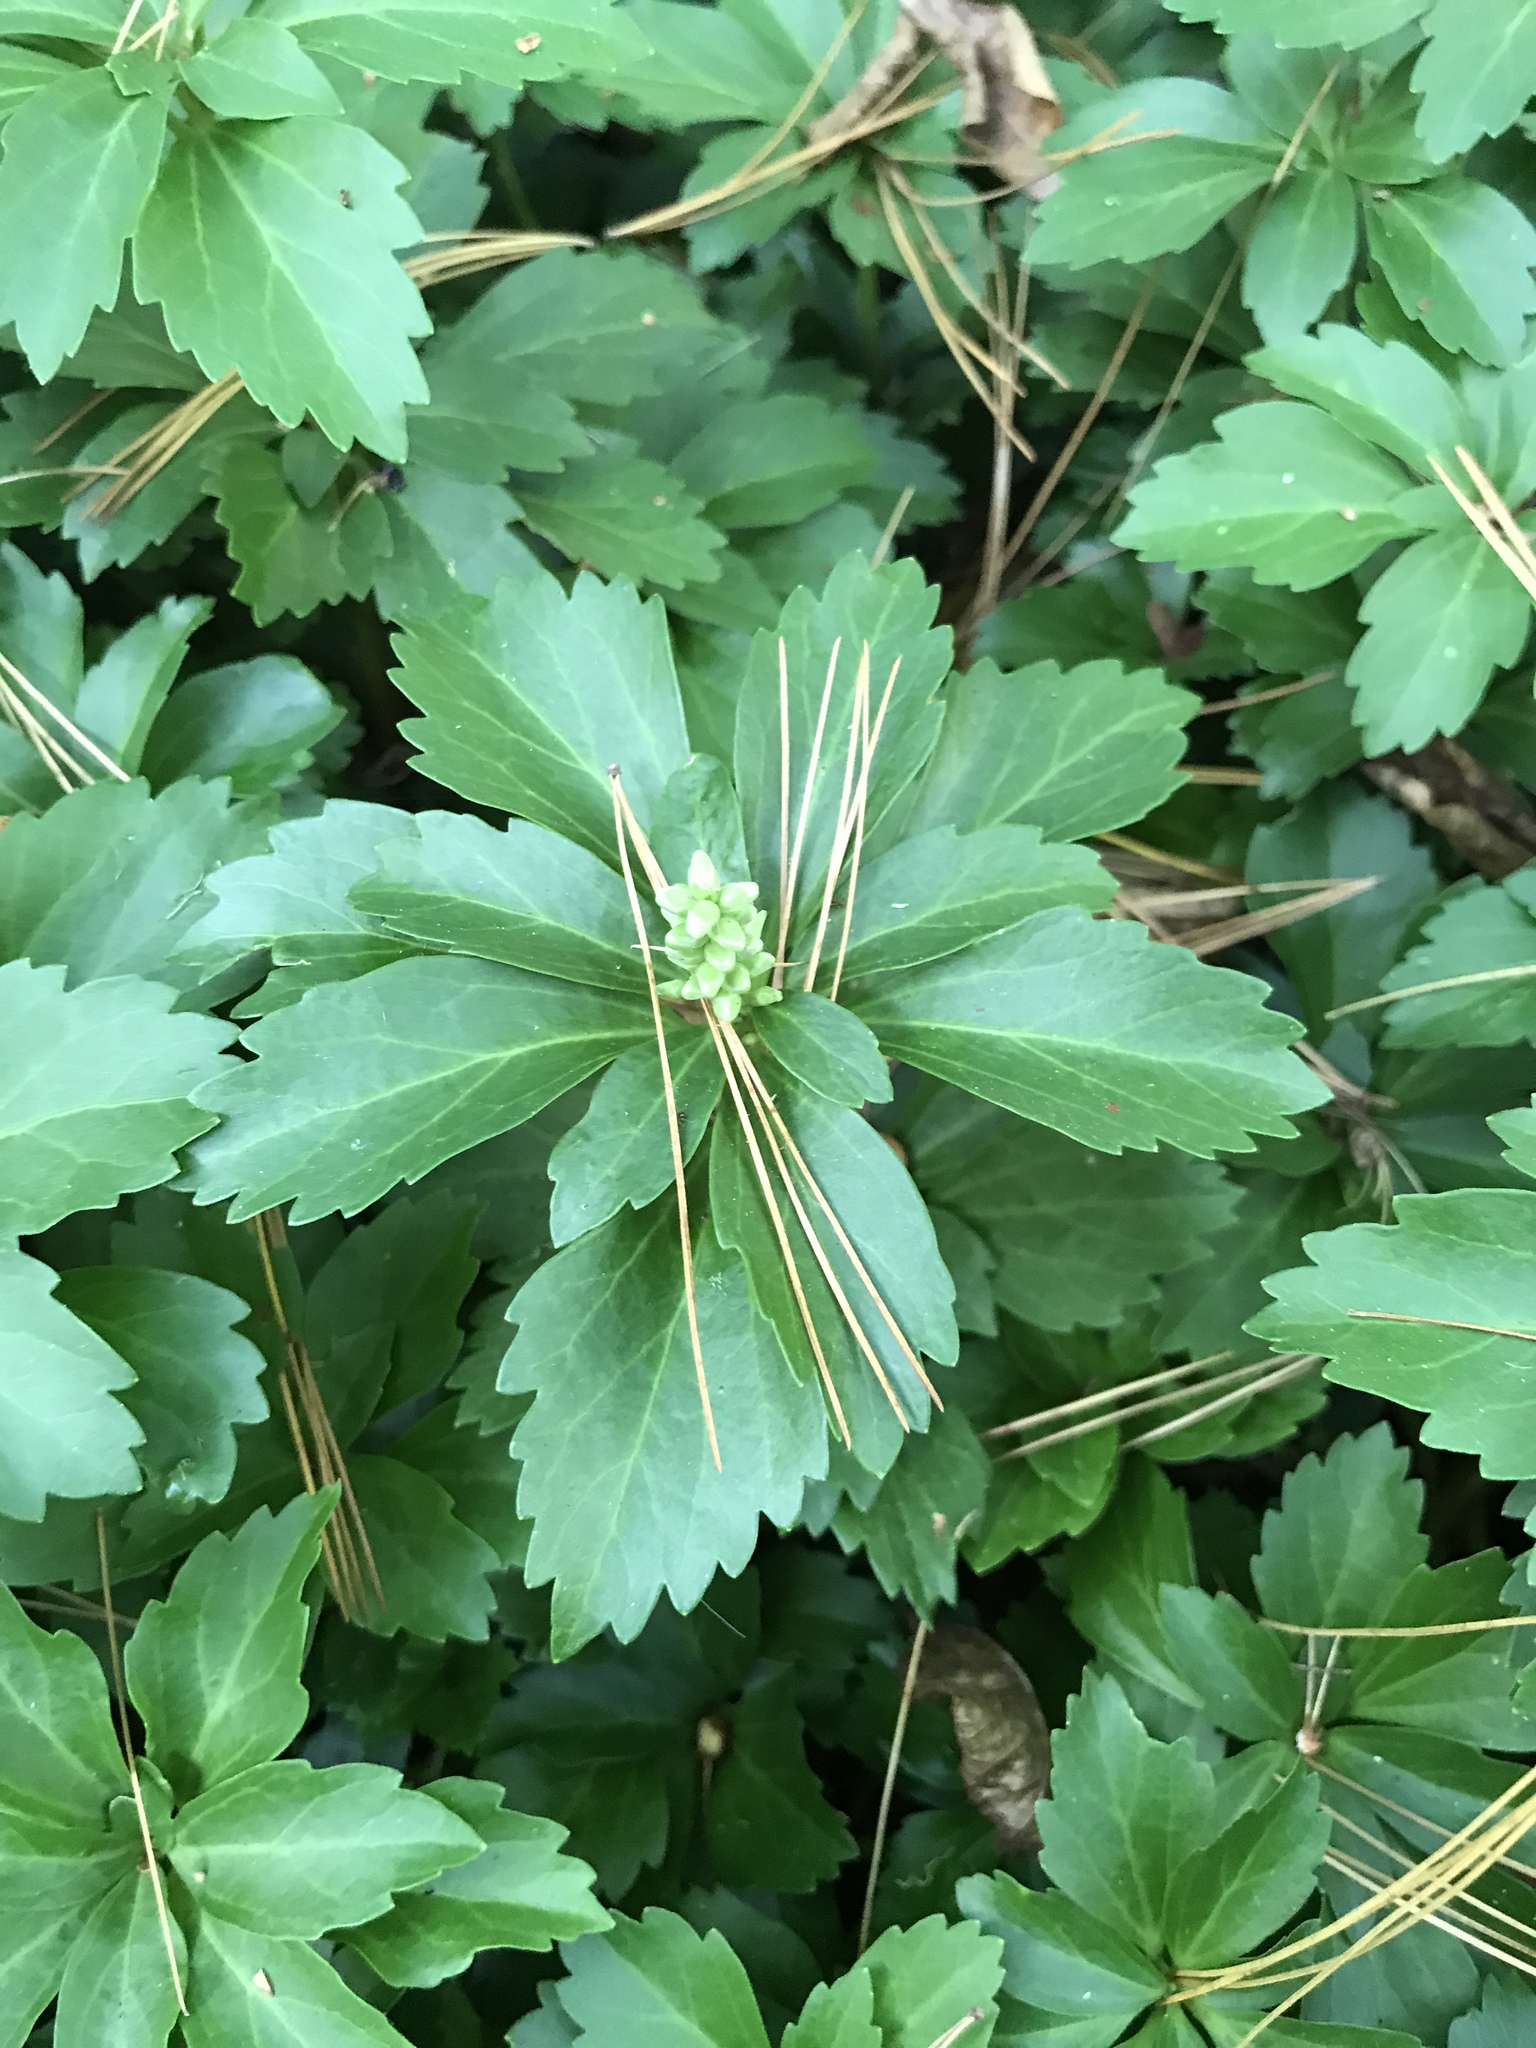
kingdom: Plantae
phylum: Tracheophyta
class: Magnoliopsida
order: Buxales
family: Buxaceae
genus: Pachysandra
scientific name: Pachysandra terminalis
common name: Japanese pachysandra
